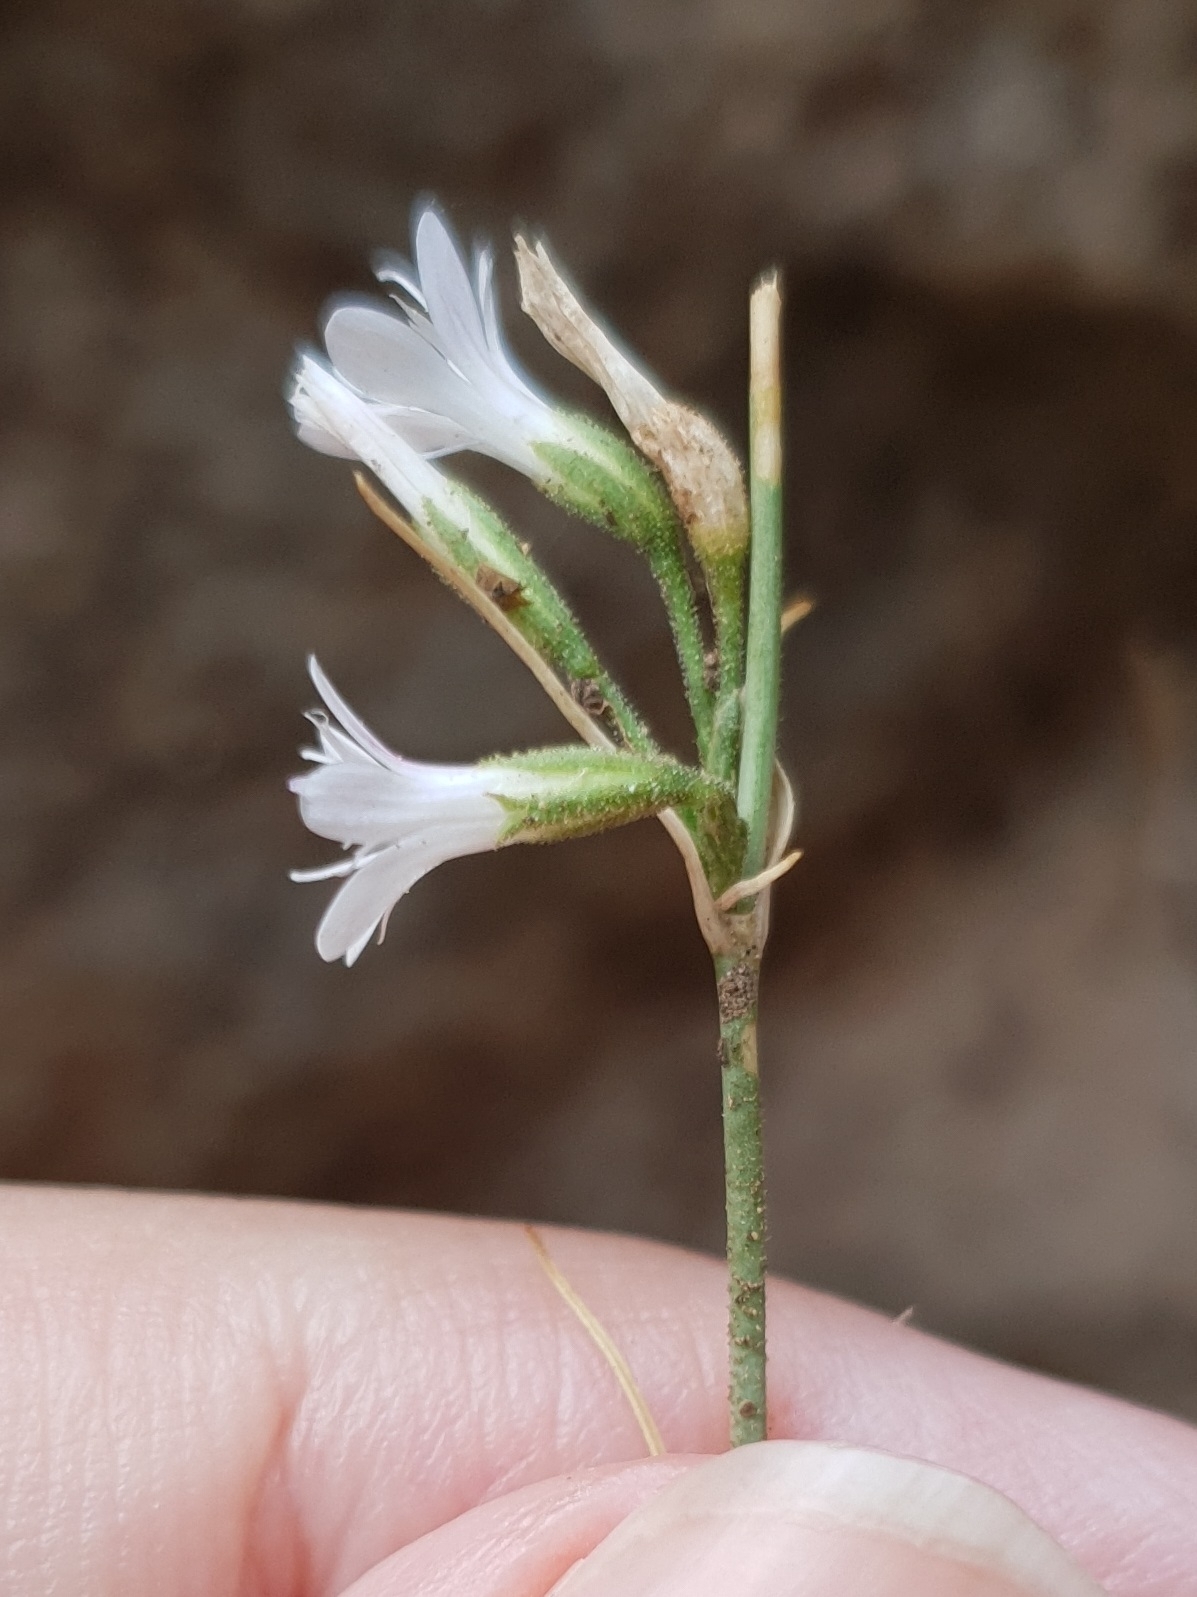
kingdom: Plantae
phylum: Tracheophyta
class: Magnoliopsida
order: Caryophyllales
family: Caryophyllaceae
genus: Dianthus
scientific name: Dianthus illyricus
